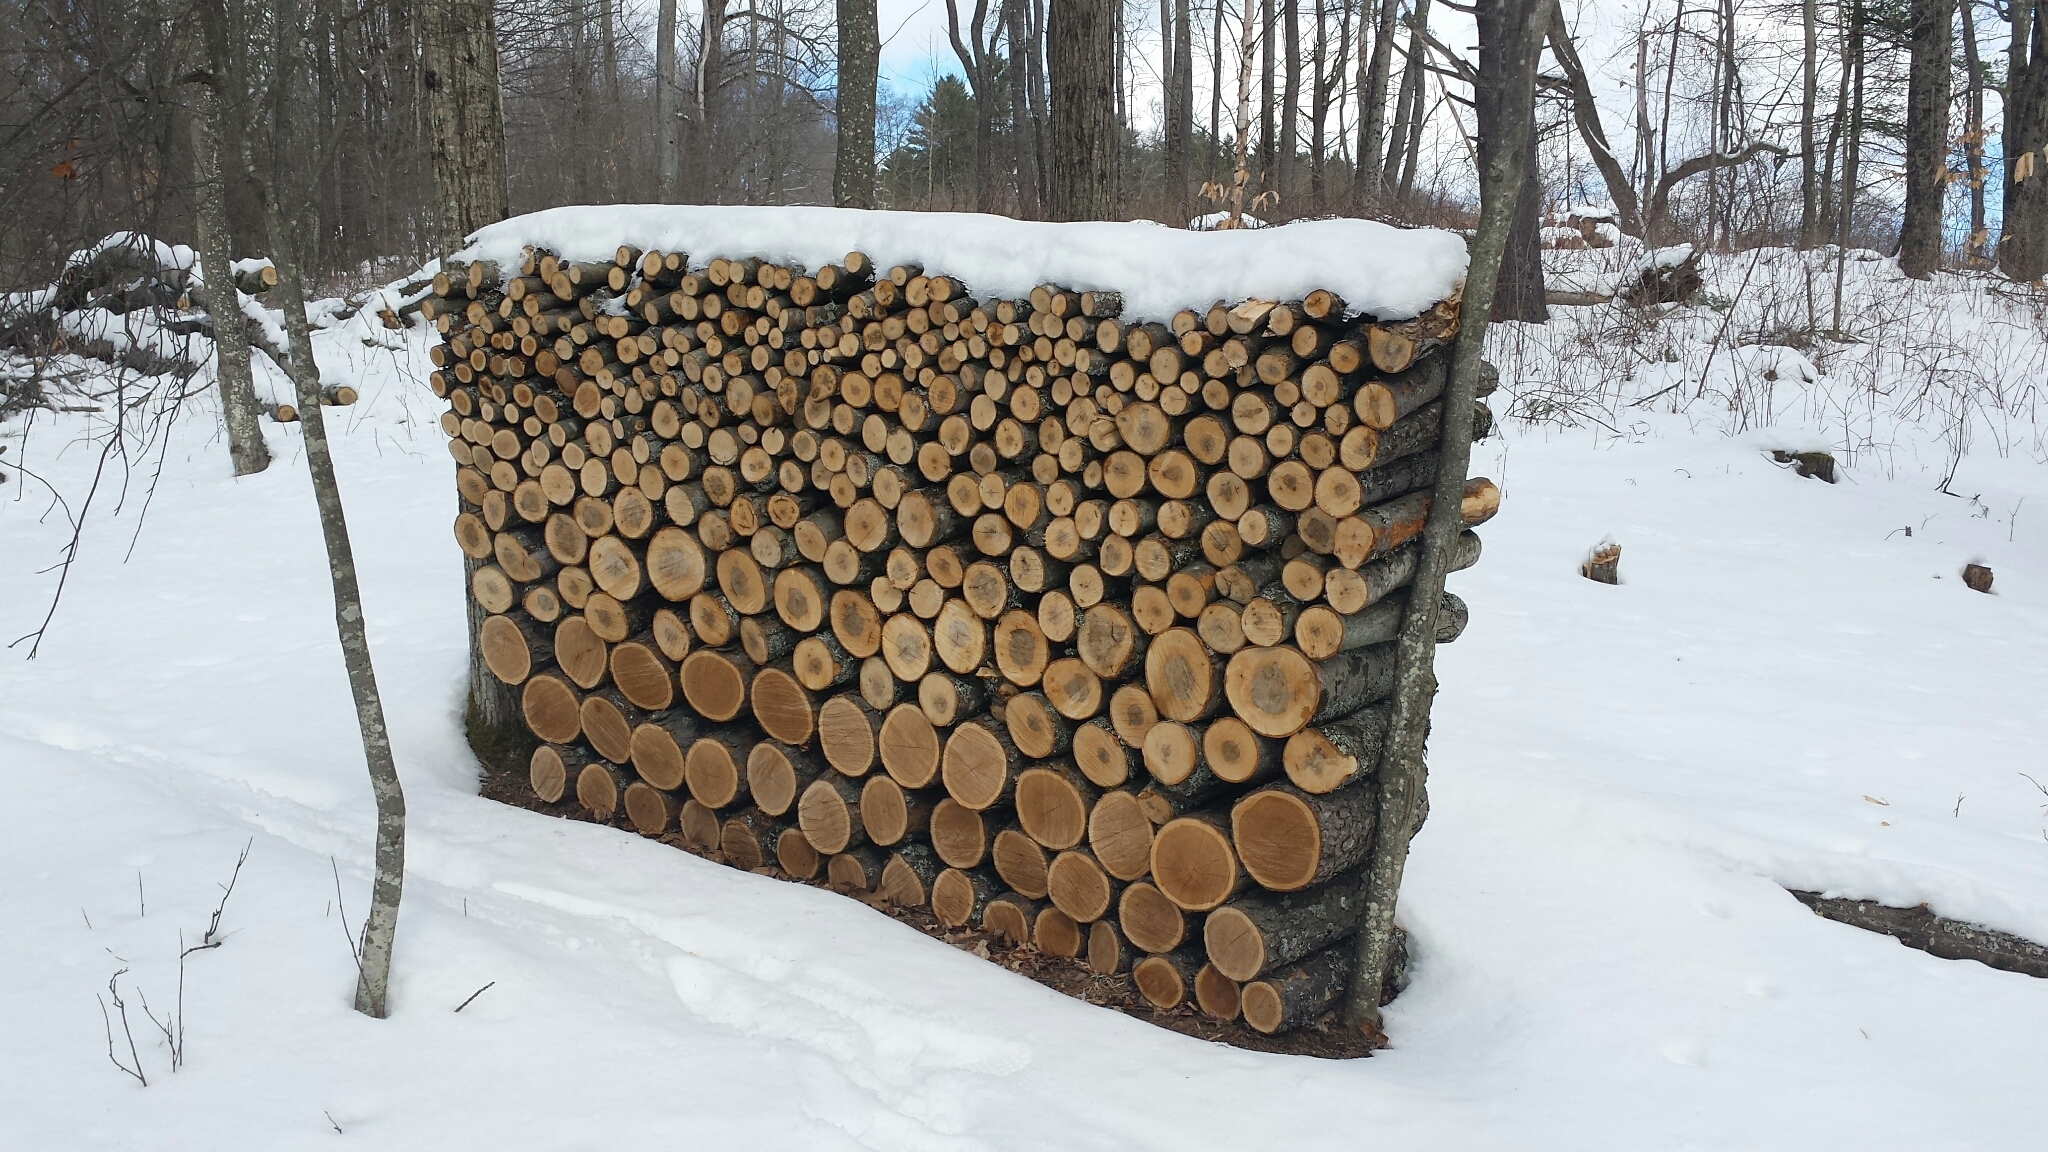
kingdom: Plantae
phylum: Tracheophyta
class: Magnoliopsida
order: Rosales
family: Rosaceae
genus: Prunus
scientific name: Prunus serotina
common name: Black cherry
